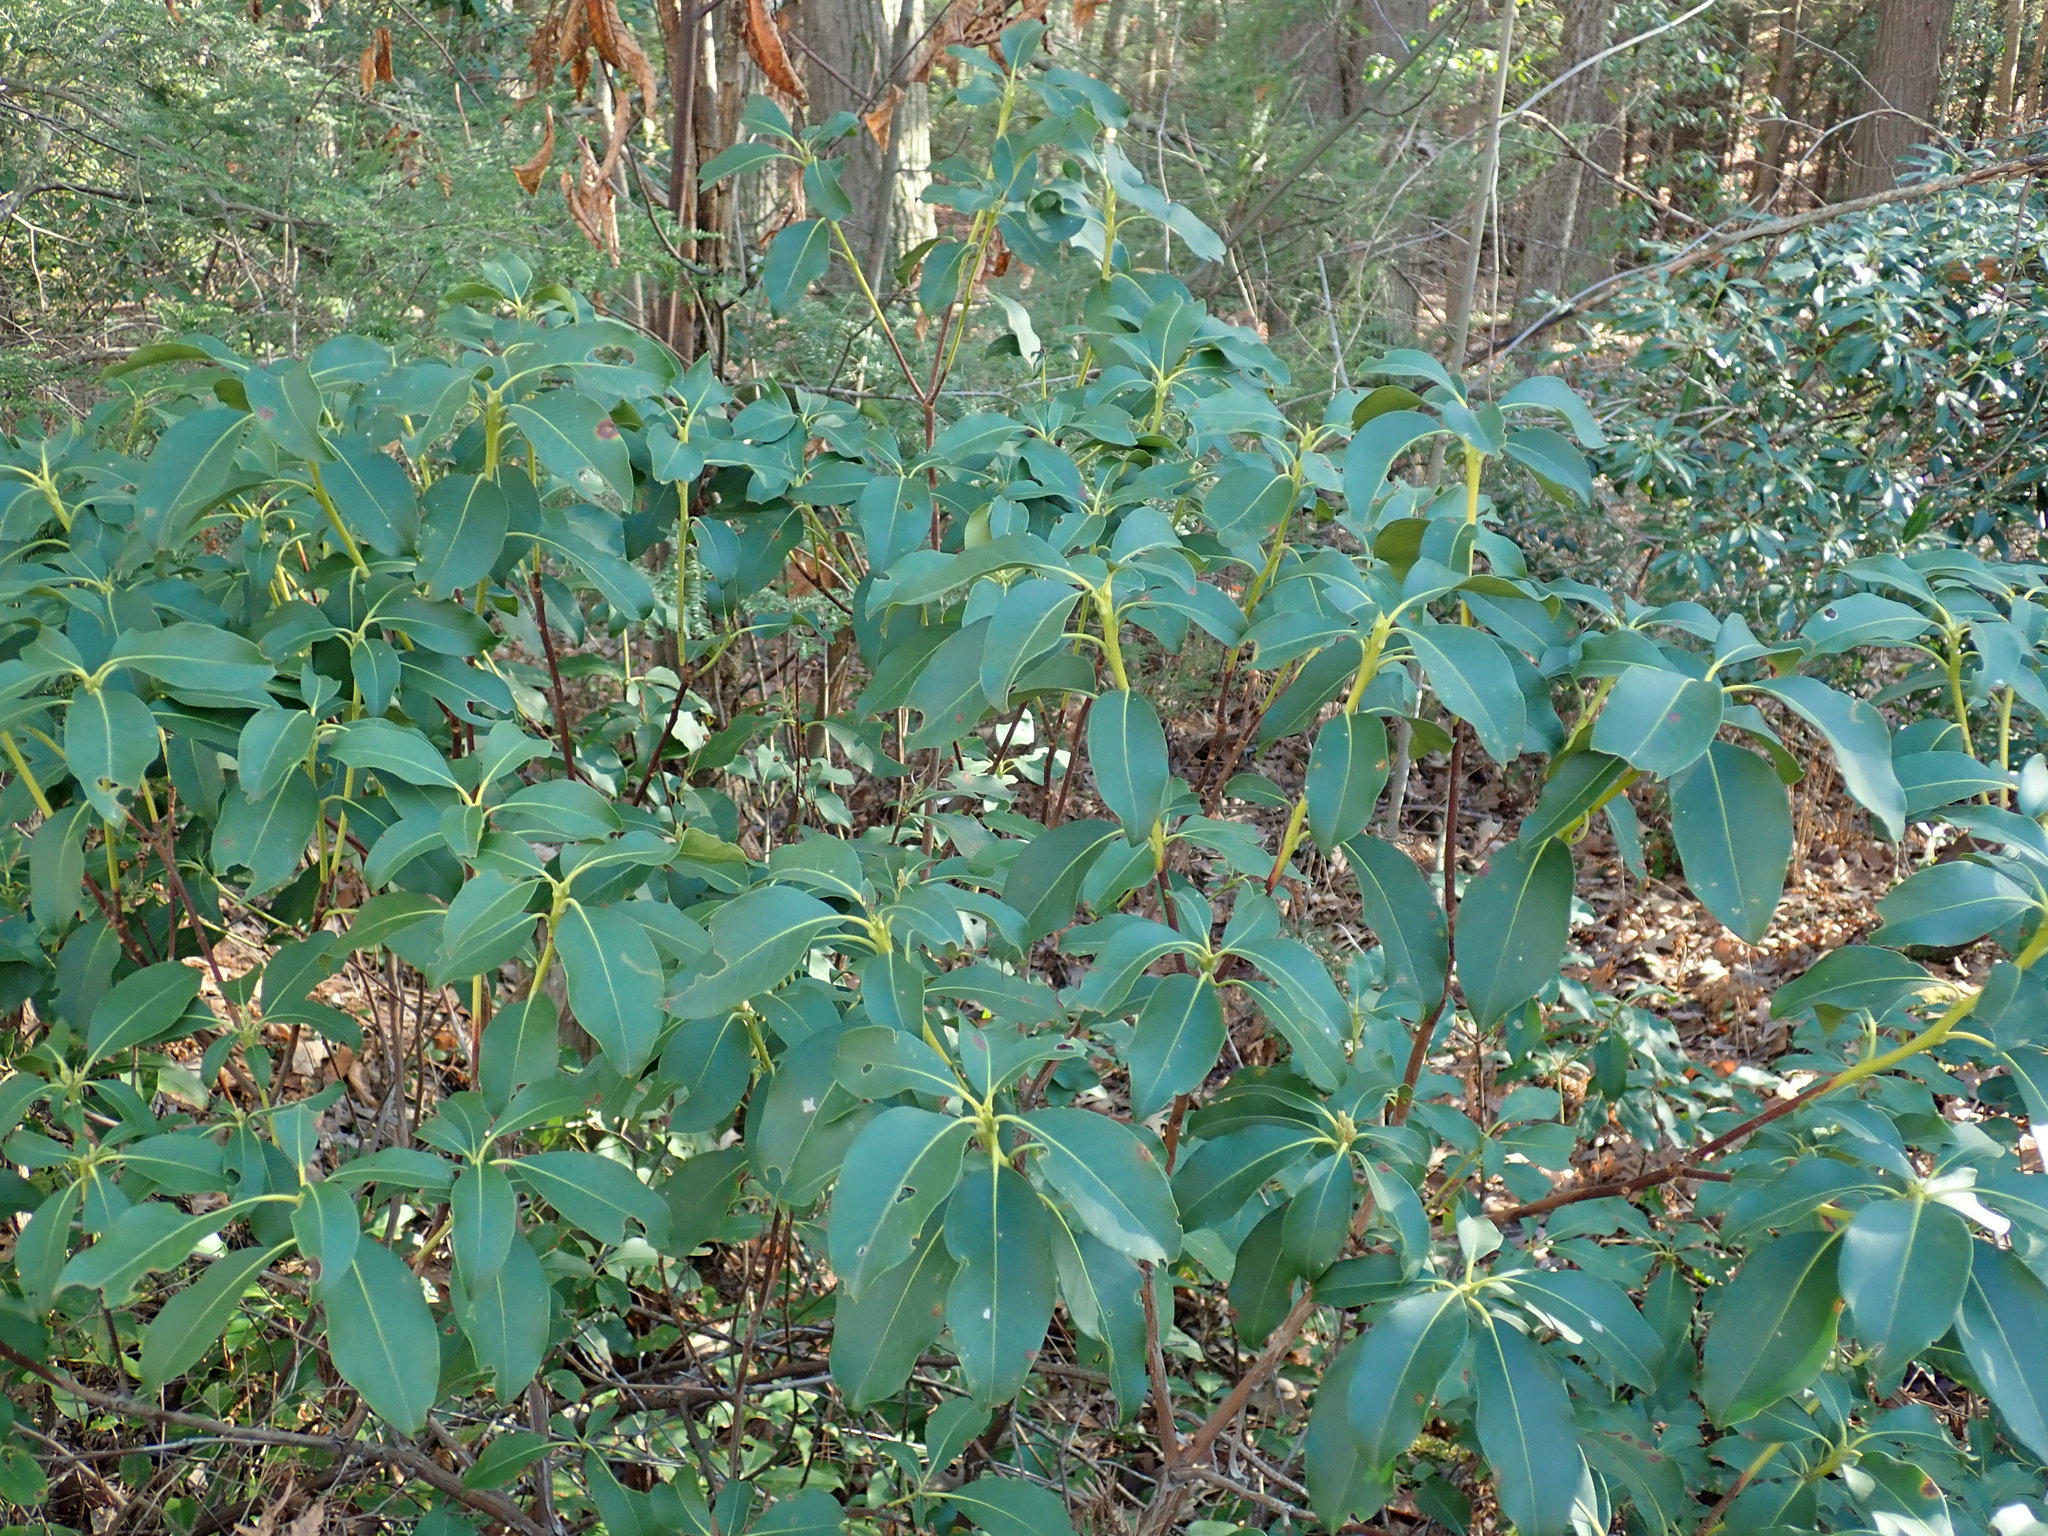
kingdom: Plantae
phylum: Tracheophyta
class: Magnoliopsida
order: Ericales
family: Ericaceae
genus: Kalmia
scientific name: Kalmia latifolia
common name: Mountain-laurel
